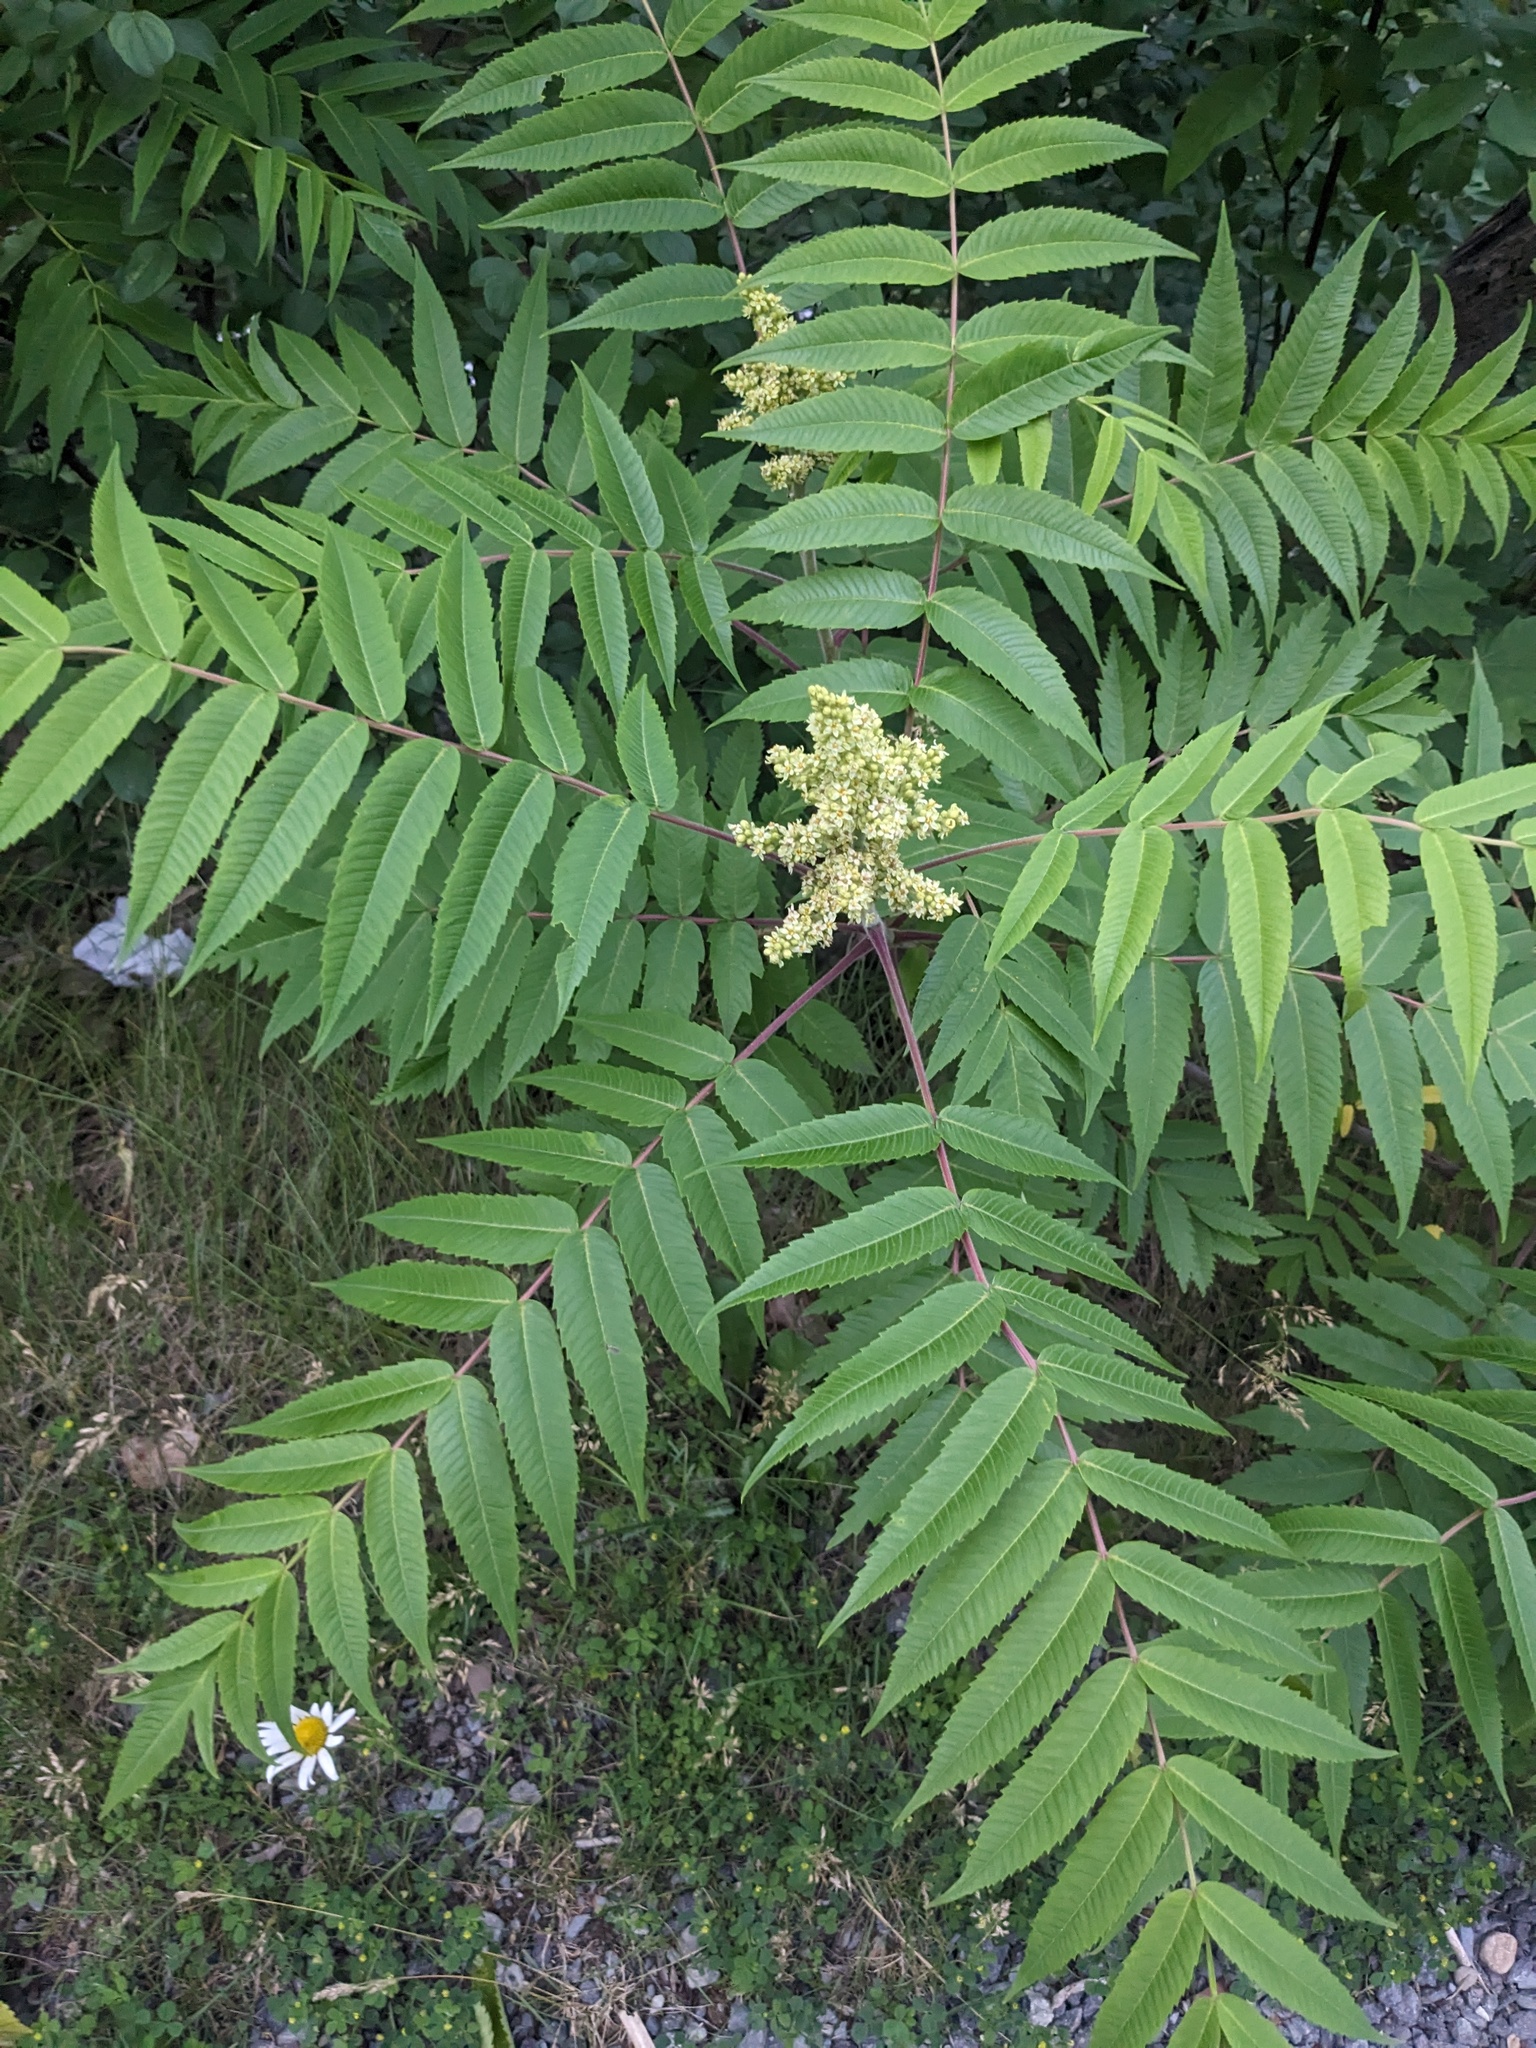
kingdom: Plantae
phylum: Tracheophyta
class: Magnoliopsida
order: Sapindales
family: Anacardiaceae
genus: Rhus
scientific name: Rhus typhina
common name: Staghorn sumac
